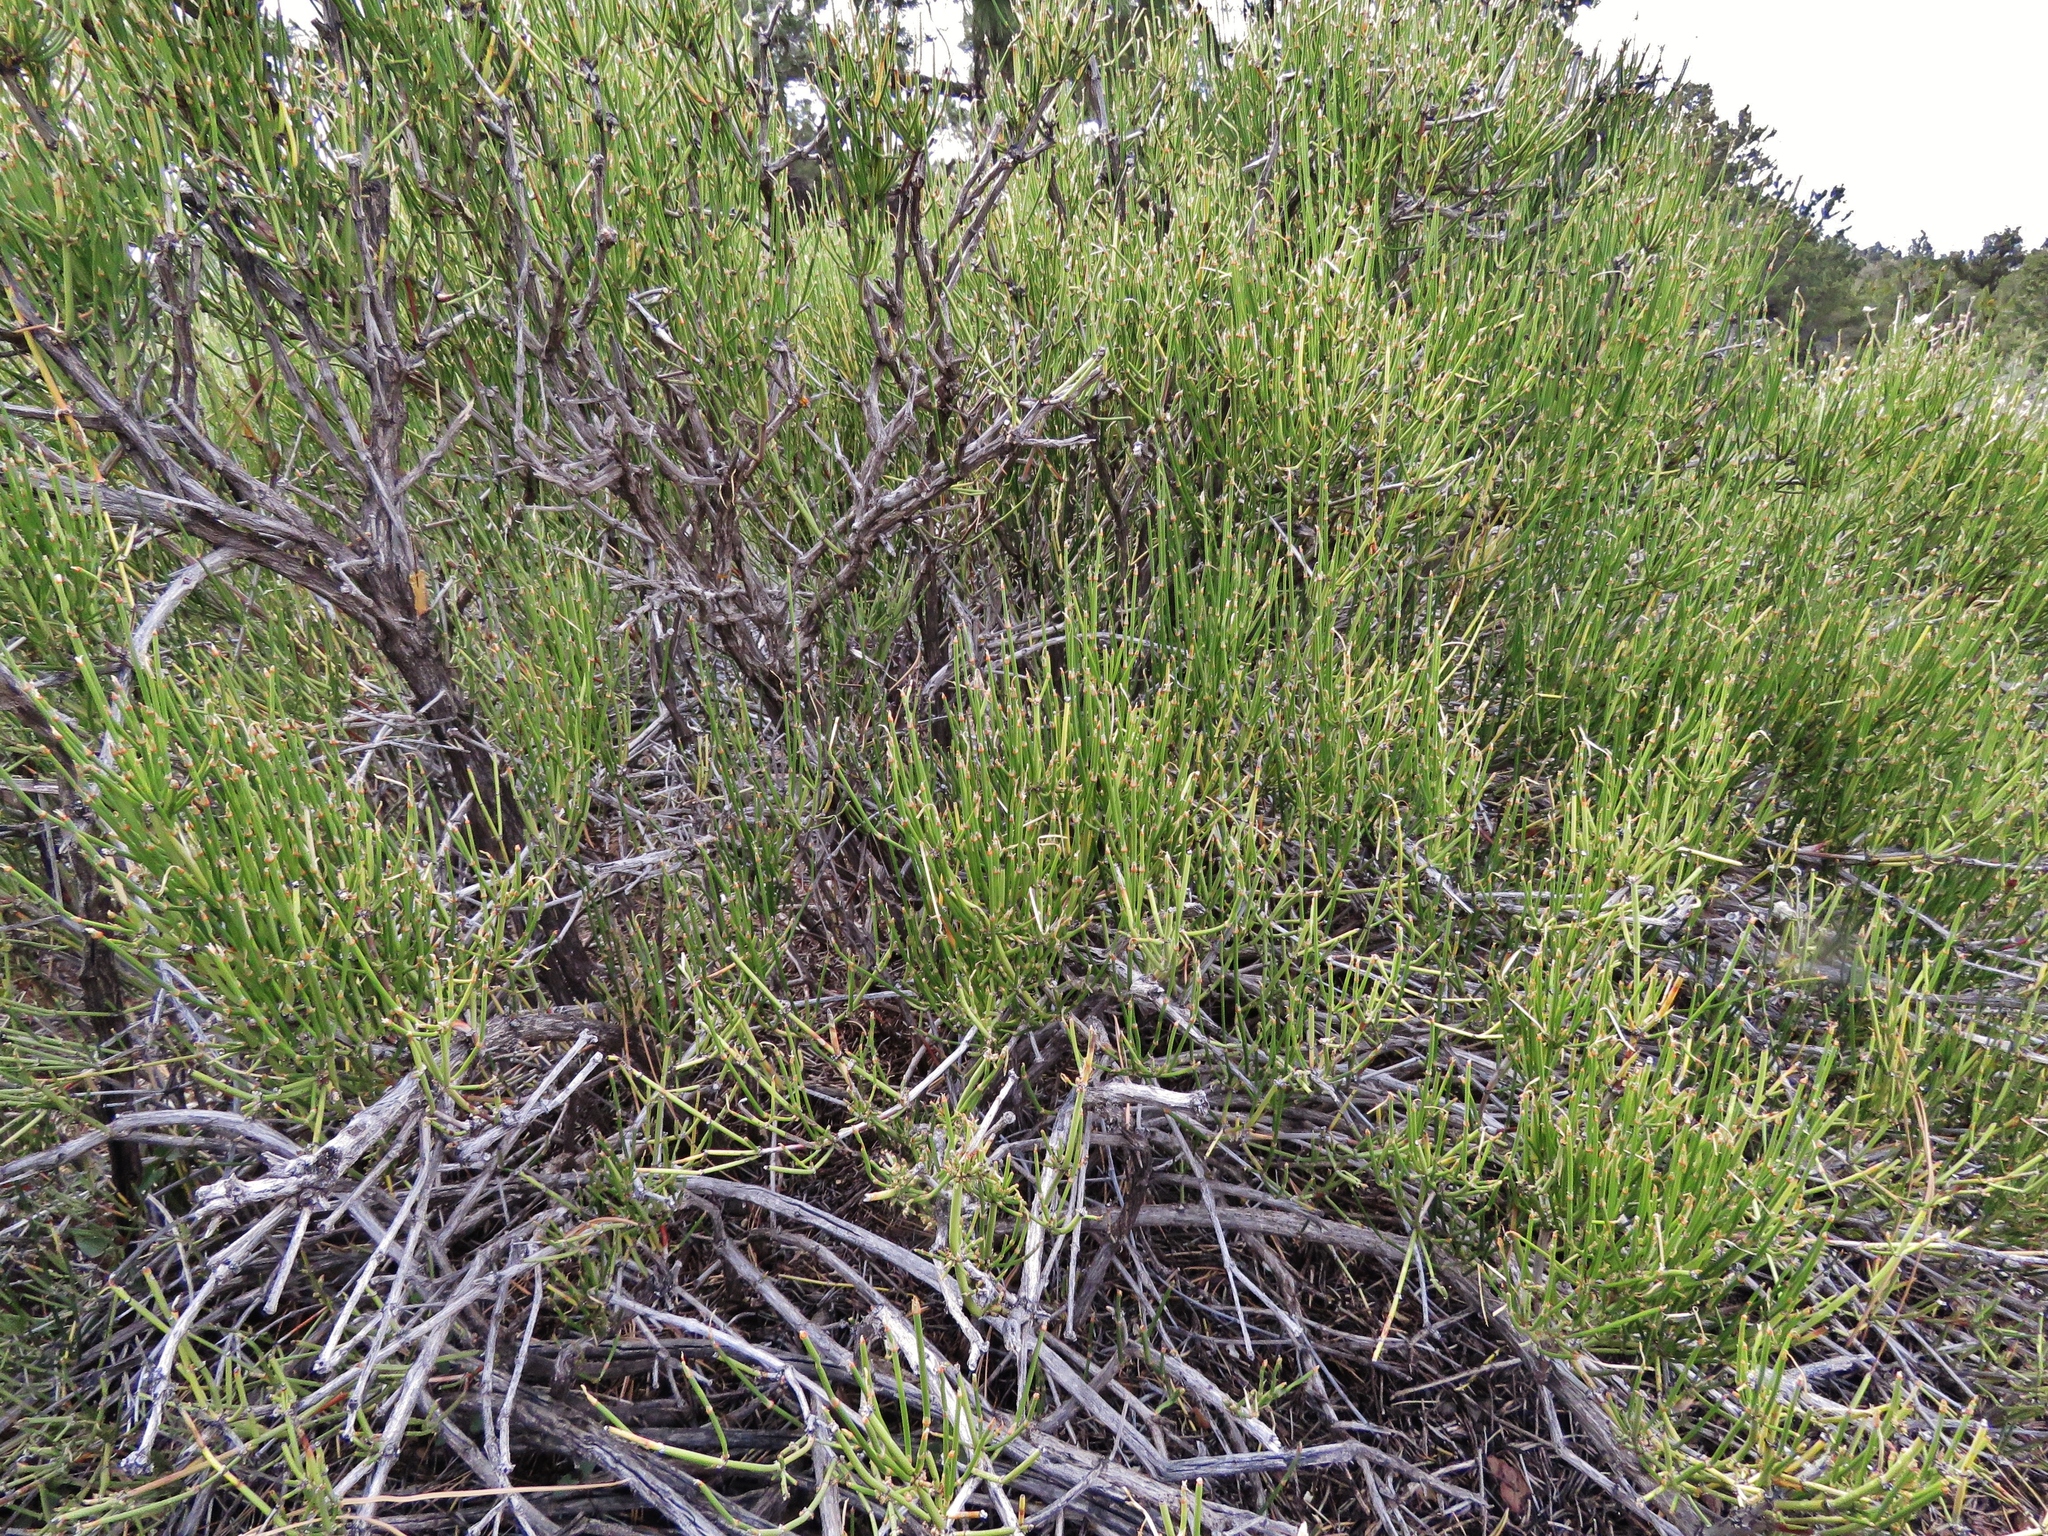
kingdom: Plantae
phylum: Tracheophyta
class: Gnetopsida
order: Ephedrales
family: Ephedraceae
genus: Ephedra
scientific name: Ephedra viridis
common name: Green ephedra
